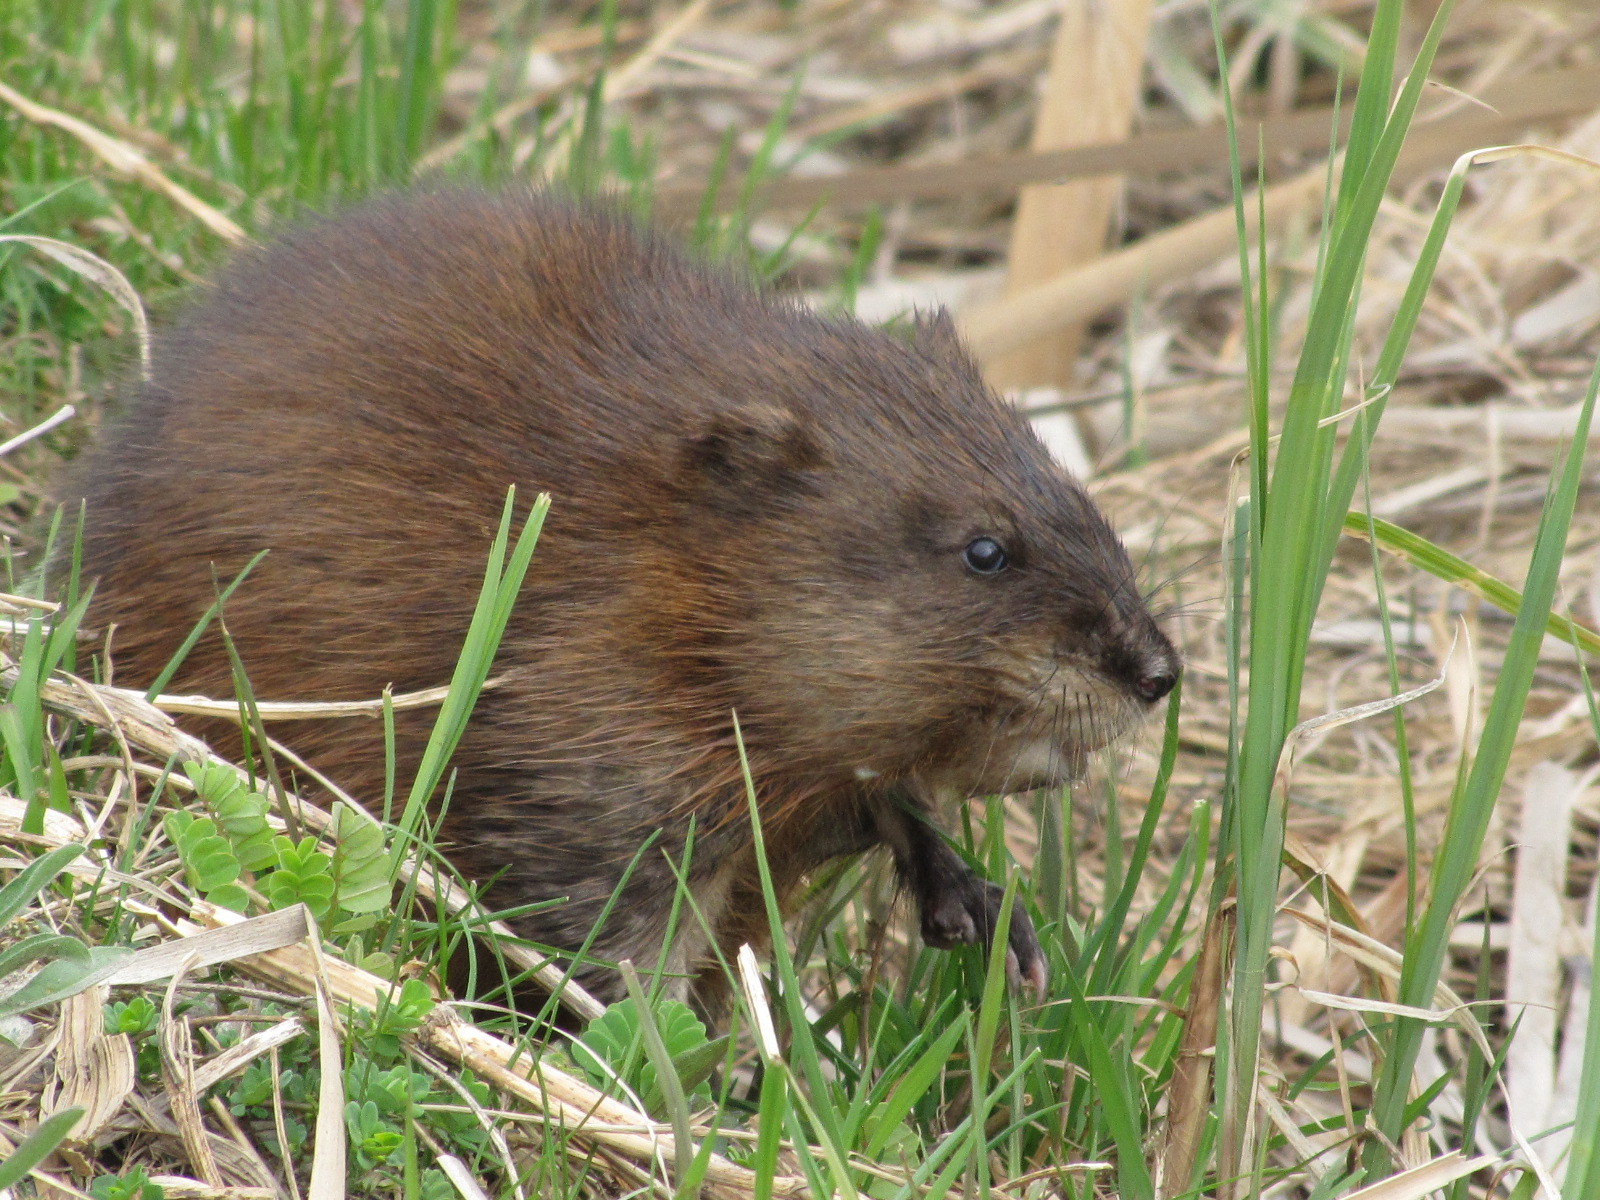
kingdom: Animalia
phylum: Chordata
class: Mammalia
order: Rodentia
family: Cricetidae
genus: Ondatra
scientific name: Ondatra zibethicus
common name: Muskrat
